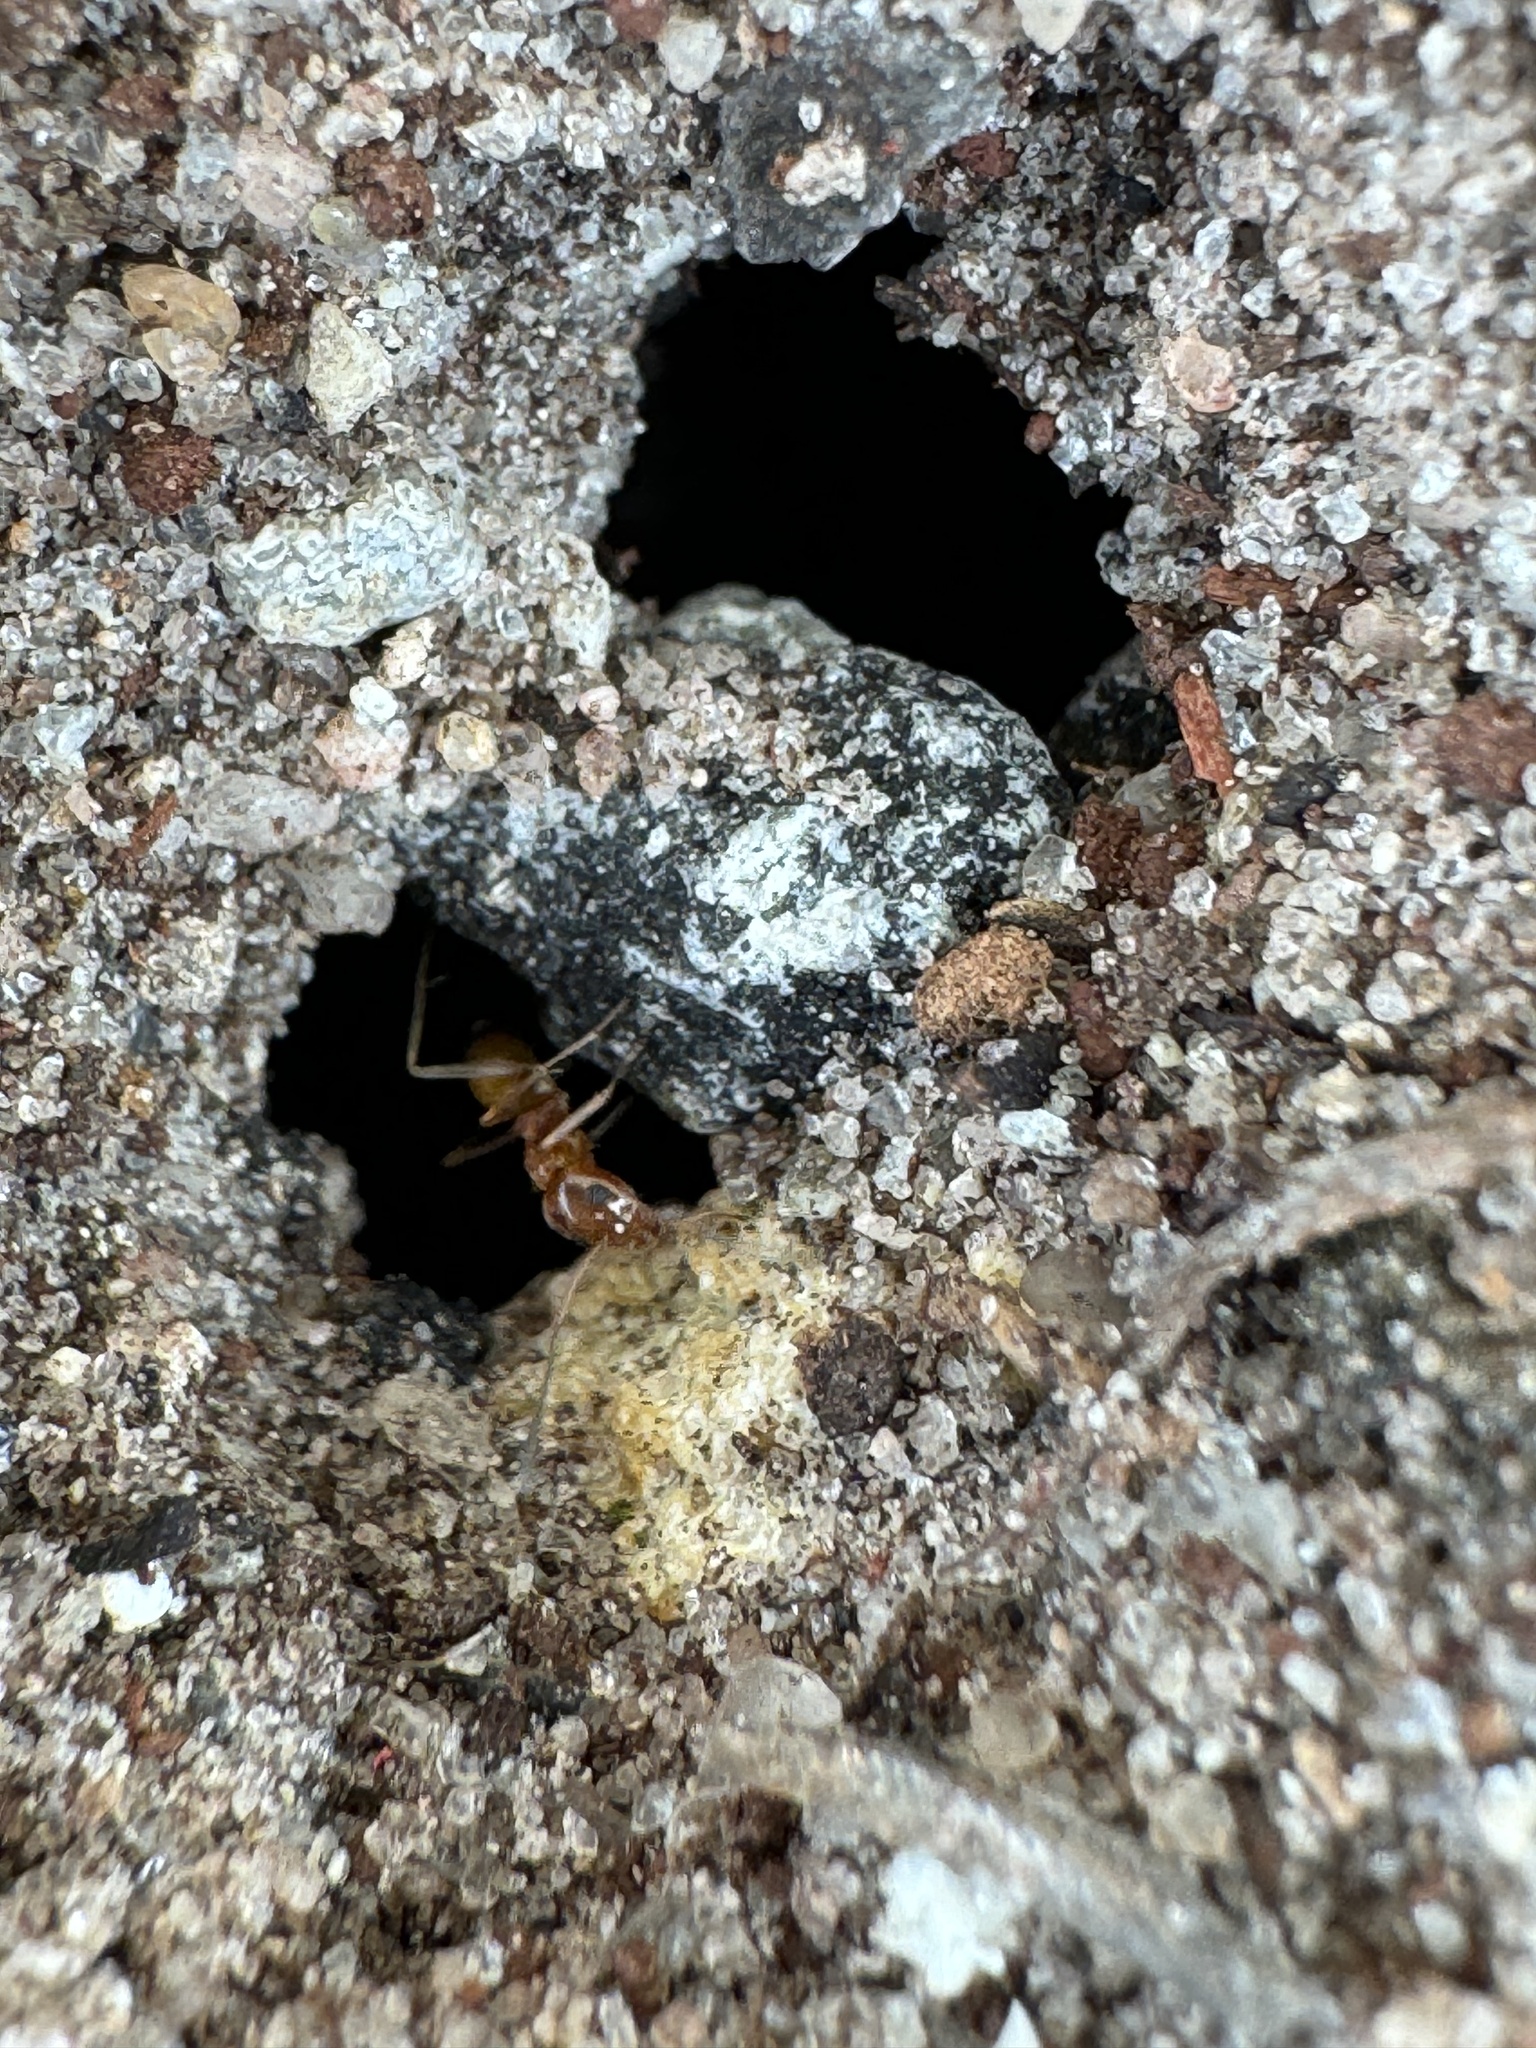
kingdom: Animalia
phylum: Arthropoda
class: Insecta
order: Hymenoptera
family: Formicidae
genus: Dorymyrmex
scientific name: Dorymyrmex bureni
